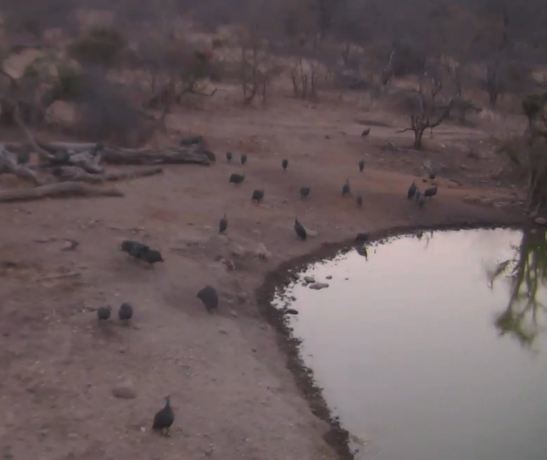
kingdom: Animalia
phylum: Chordata
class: Aves
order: Galliformes
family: Numididae
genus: Numida
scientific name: Numida meleagris
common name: Helmeted guineafowl
